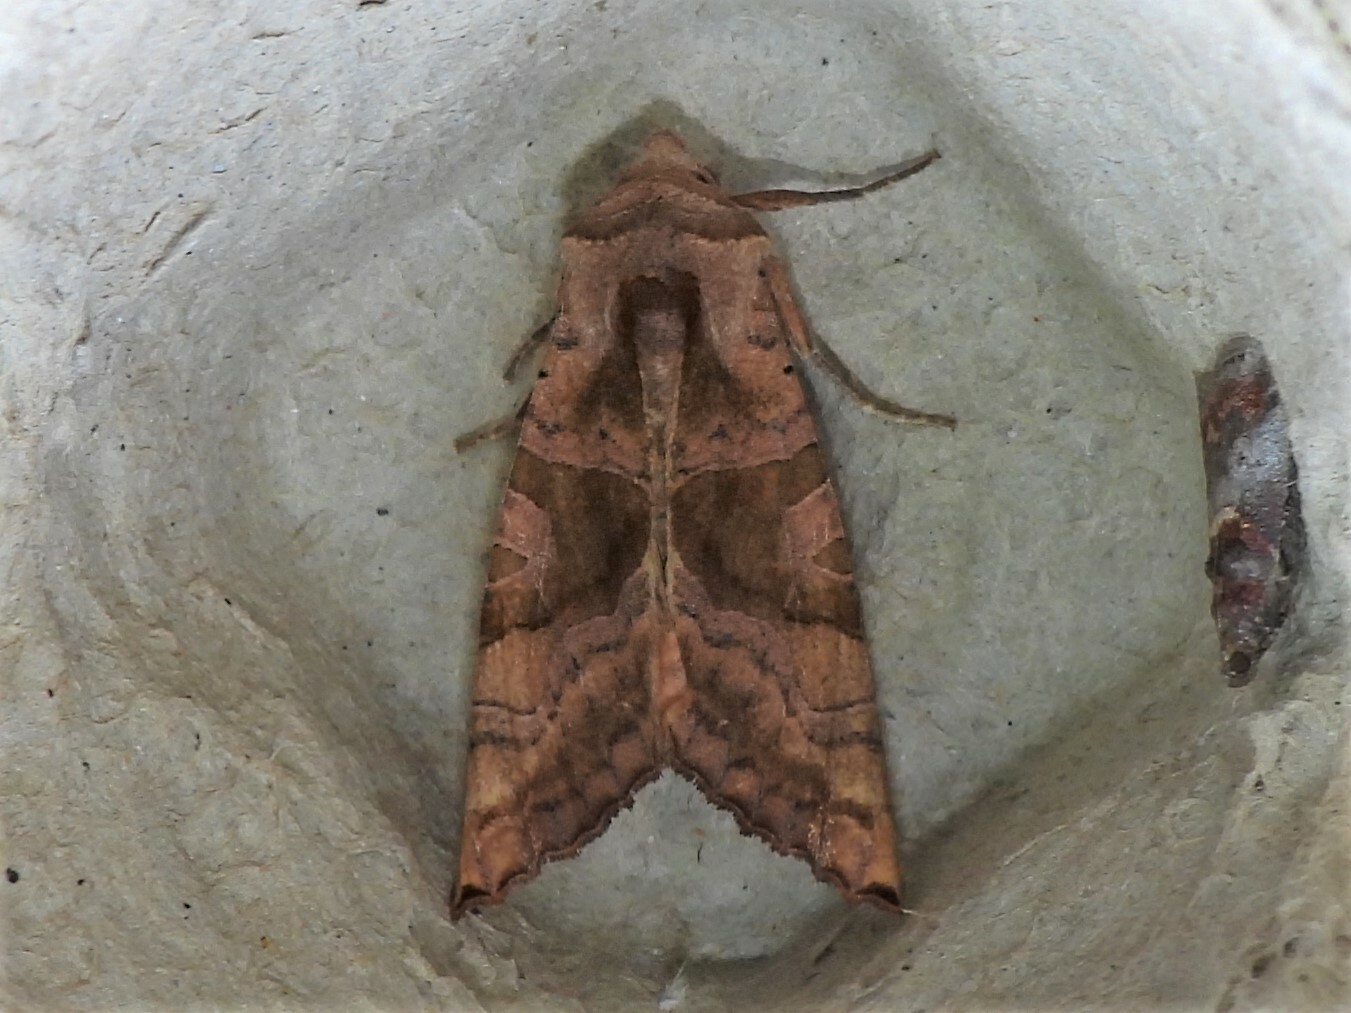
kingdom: Animalia
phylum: Arthropoda
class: Insecta
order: Lepidoptera
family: Noctuidae
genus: Phlogophora
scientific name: Phlogophora periculosa
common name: Brown angle shades
